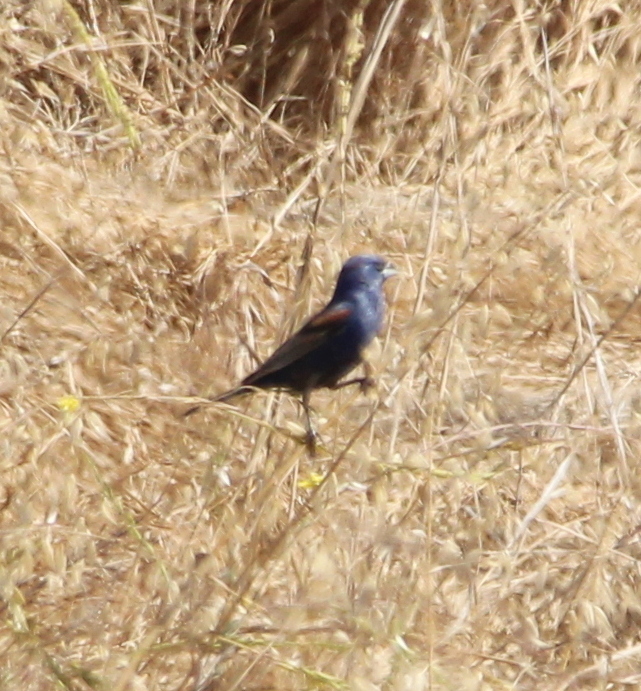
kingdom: Animalia
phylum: Chordata
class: Aves
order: Passeriformes
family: Cardinalidae
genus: Passerina
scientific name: Passerina caerulea
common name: Blue grosbeak
